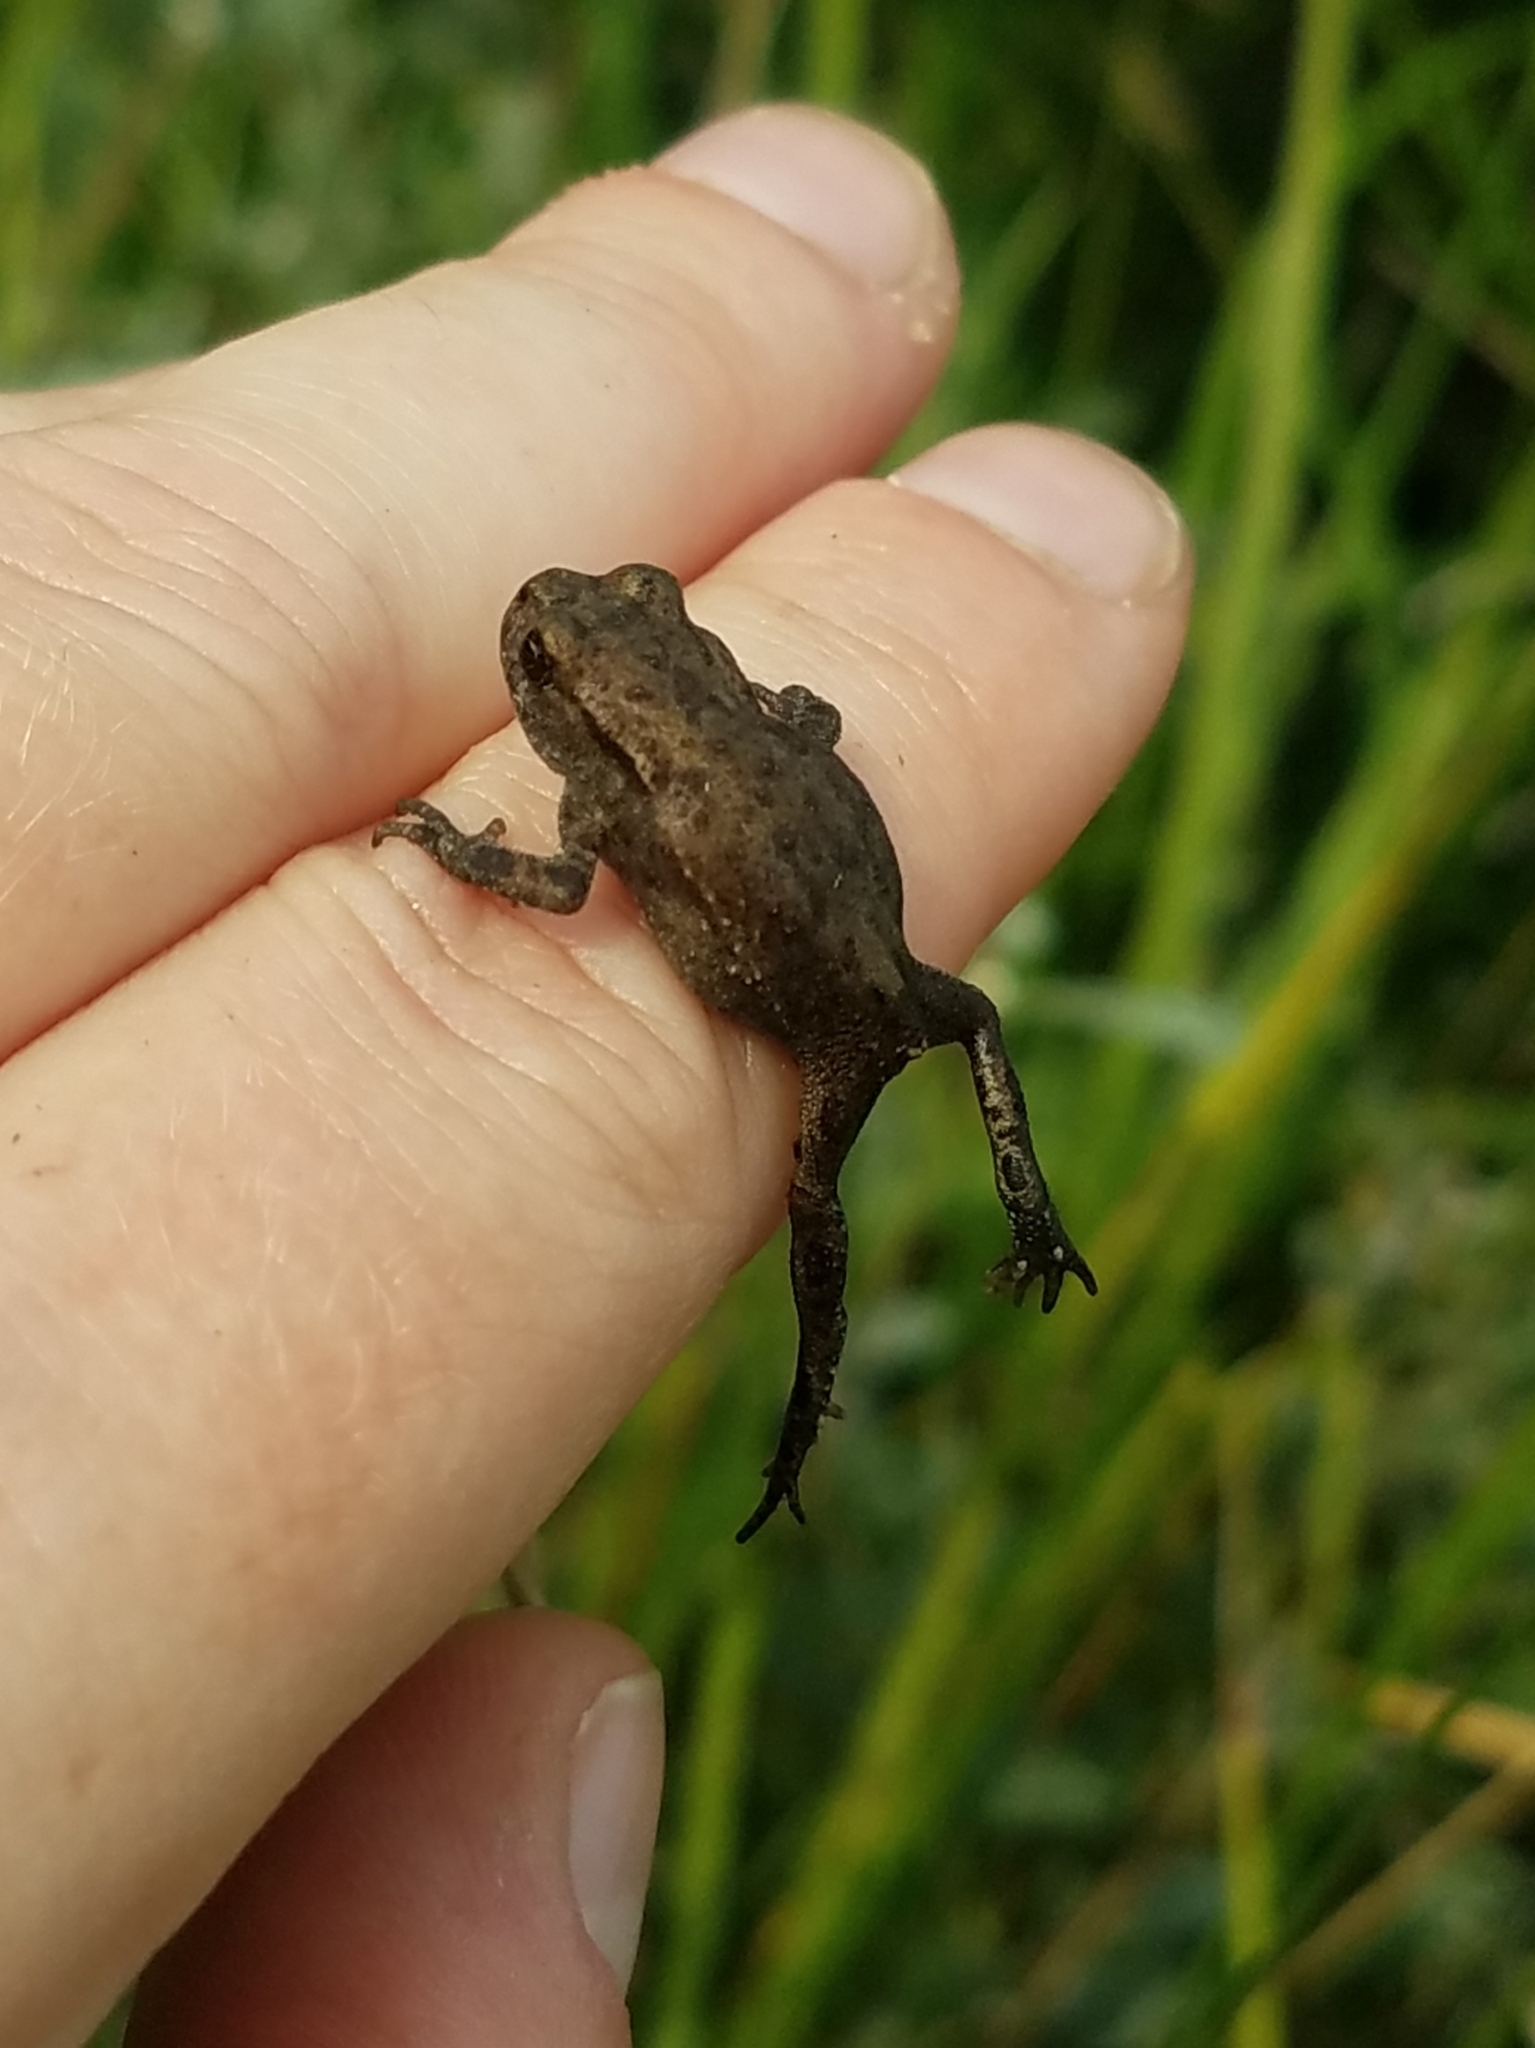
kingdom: Animalia
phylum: Chordata
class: Amphibia
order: Anura
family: Bufonidae
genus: Bufo
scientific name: Bufo bufo
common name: Common toad
